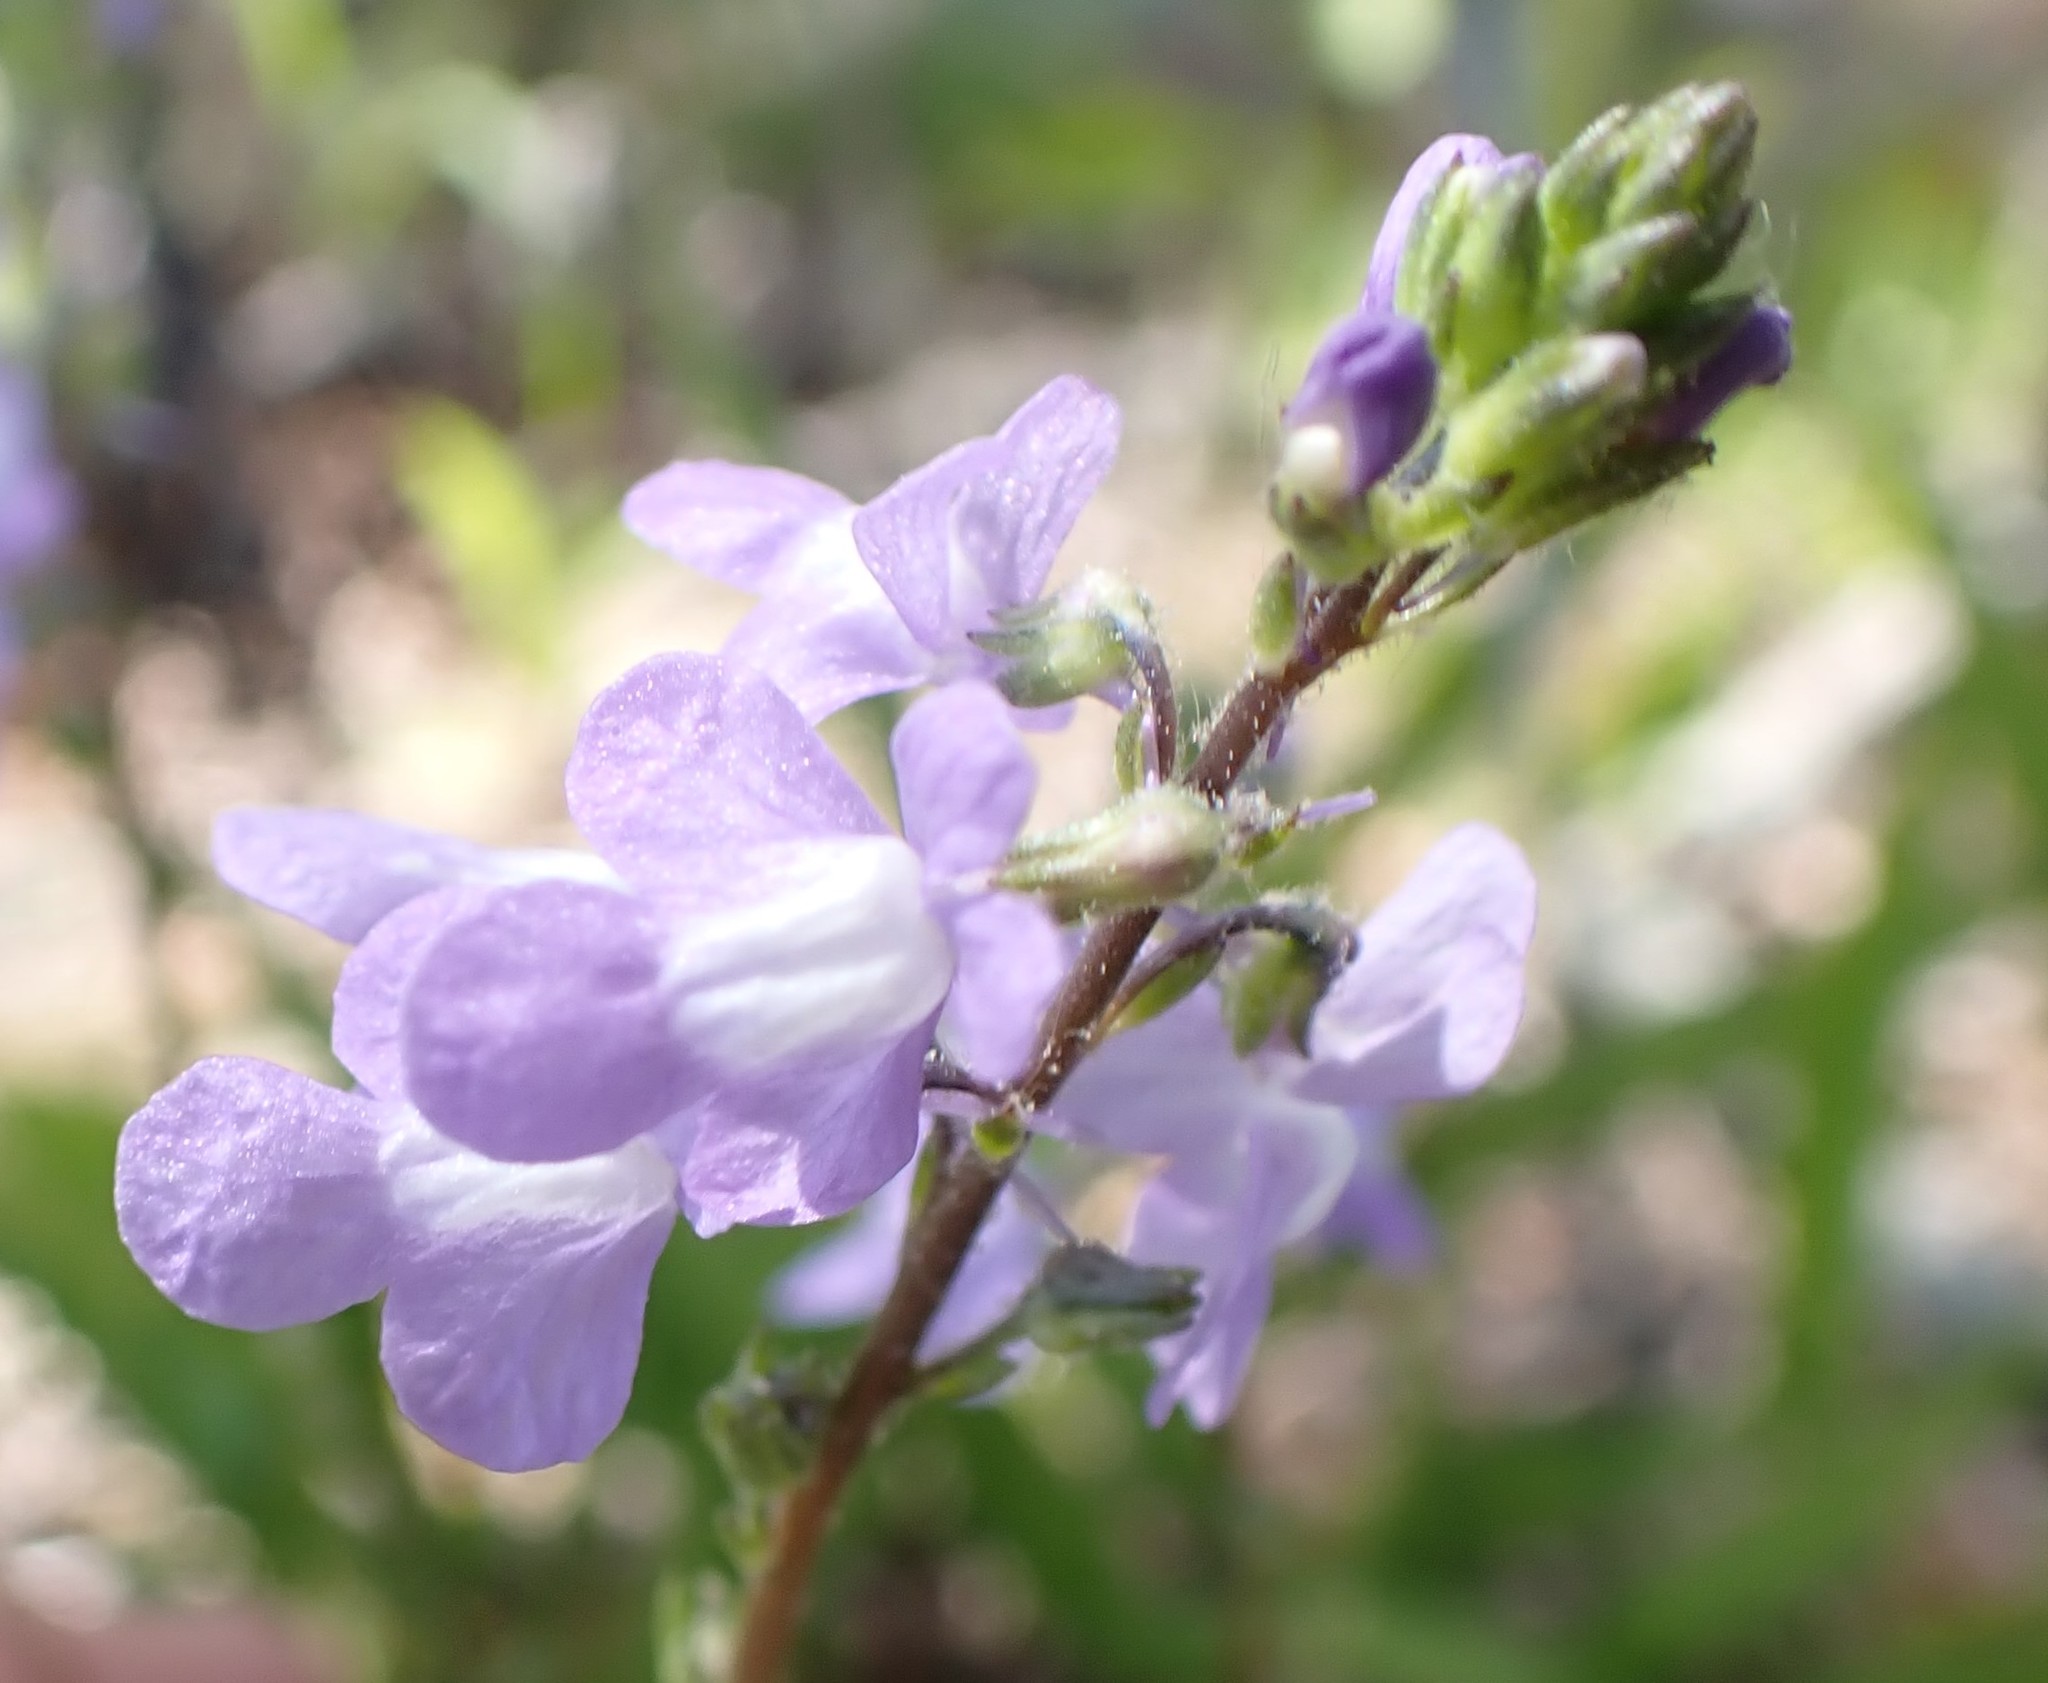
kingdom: Plantae
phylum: Tracheophyta
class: Magnoliopsida
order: Lamiales
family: Plantaginaceae
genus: Nuttallanthus
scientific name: Nuttallanthus canadensis
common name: Blue toadflax
